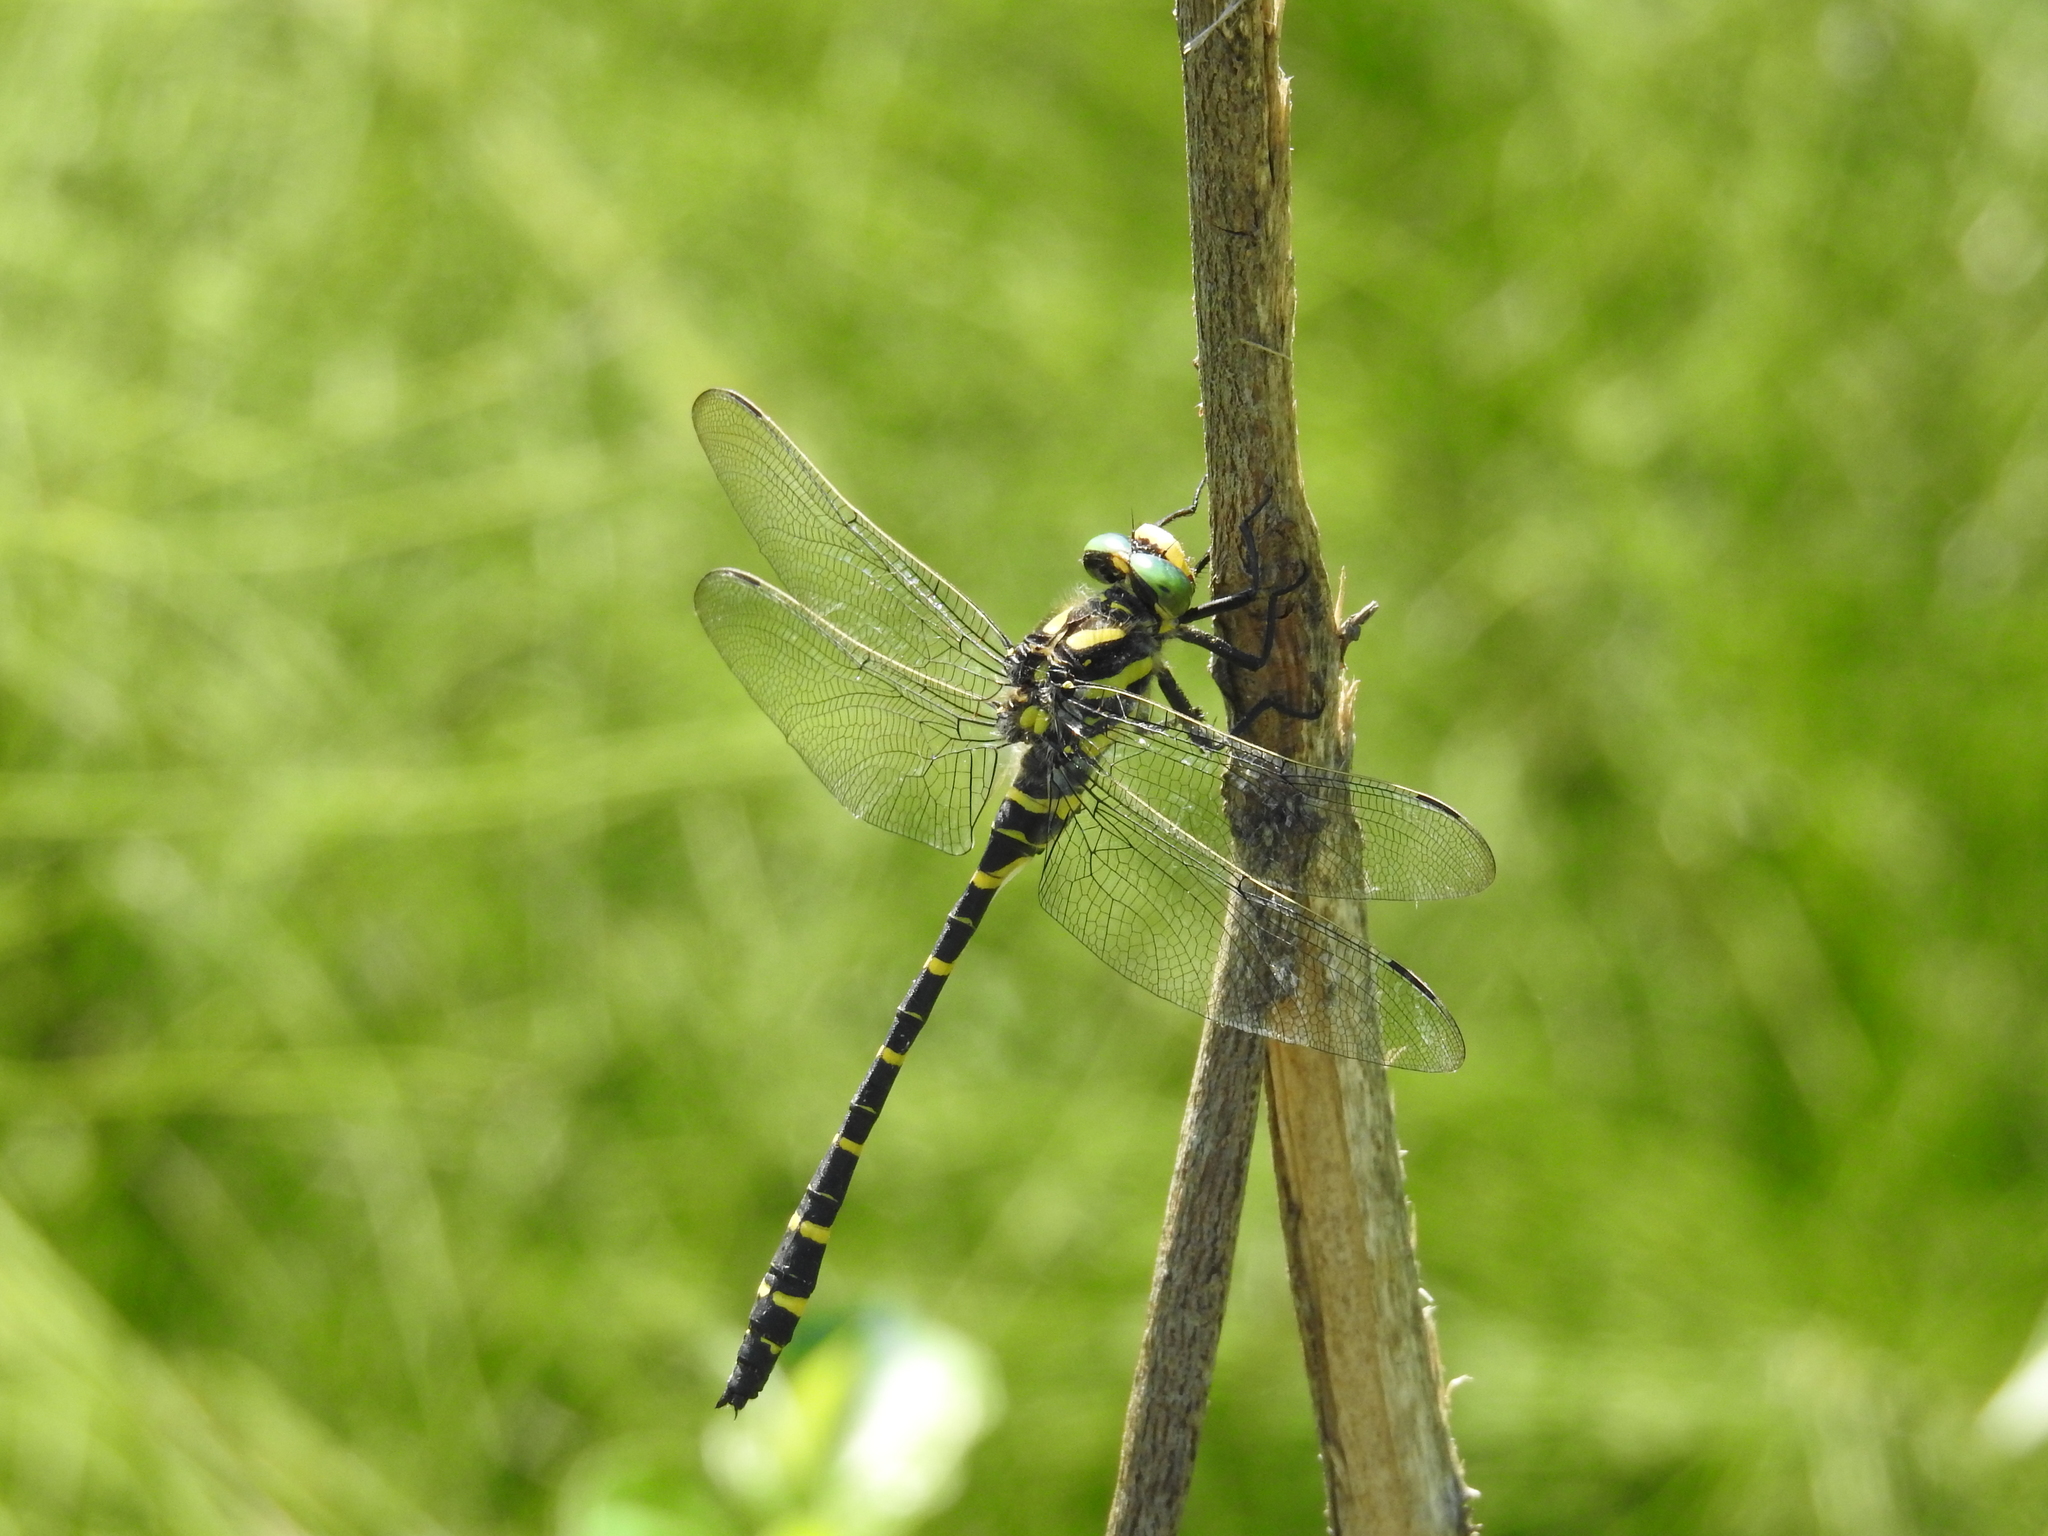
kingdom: Animalia
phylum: Arthropoda
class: Insecta
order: Odonata
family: Cordulegastridae
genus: Cordulegaster
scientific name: Cordulegaster boltonii
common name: Golden-ringed dragonfly
